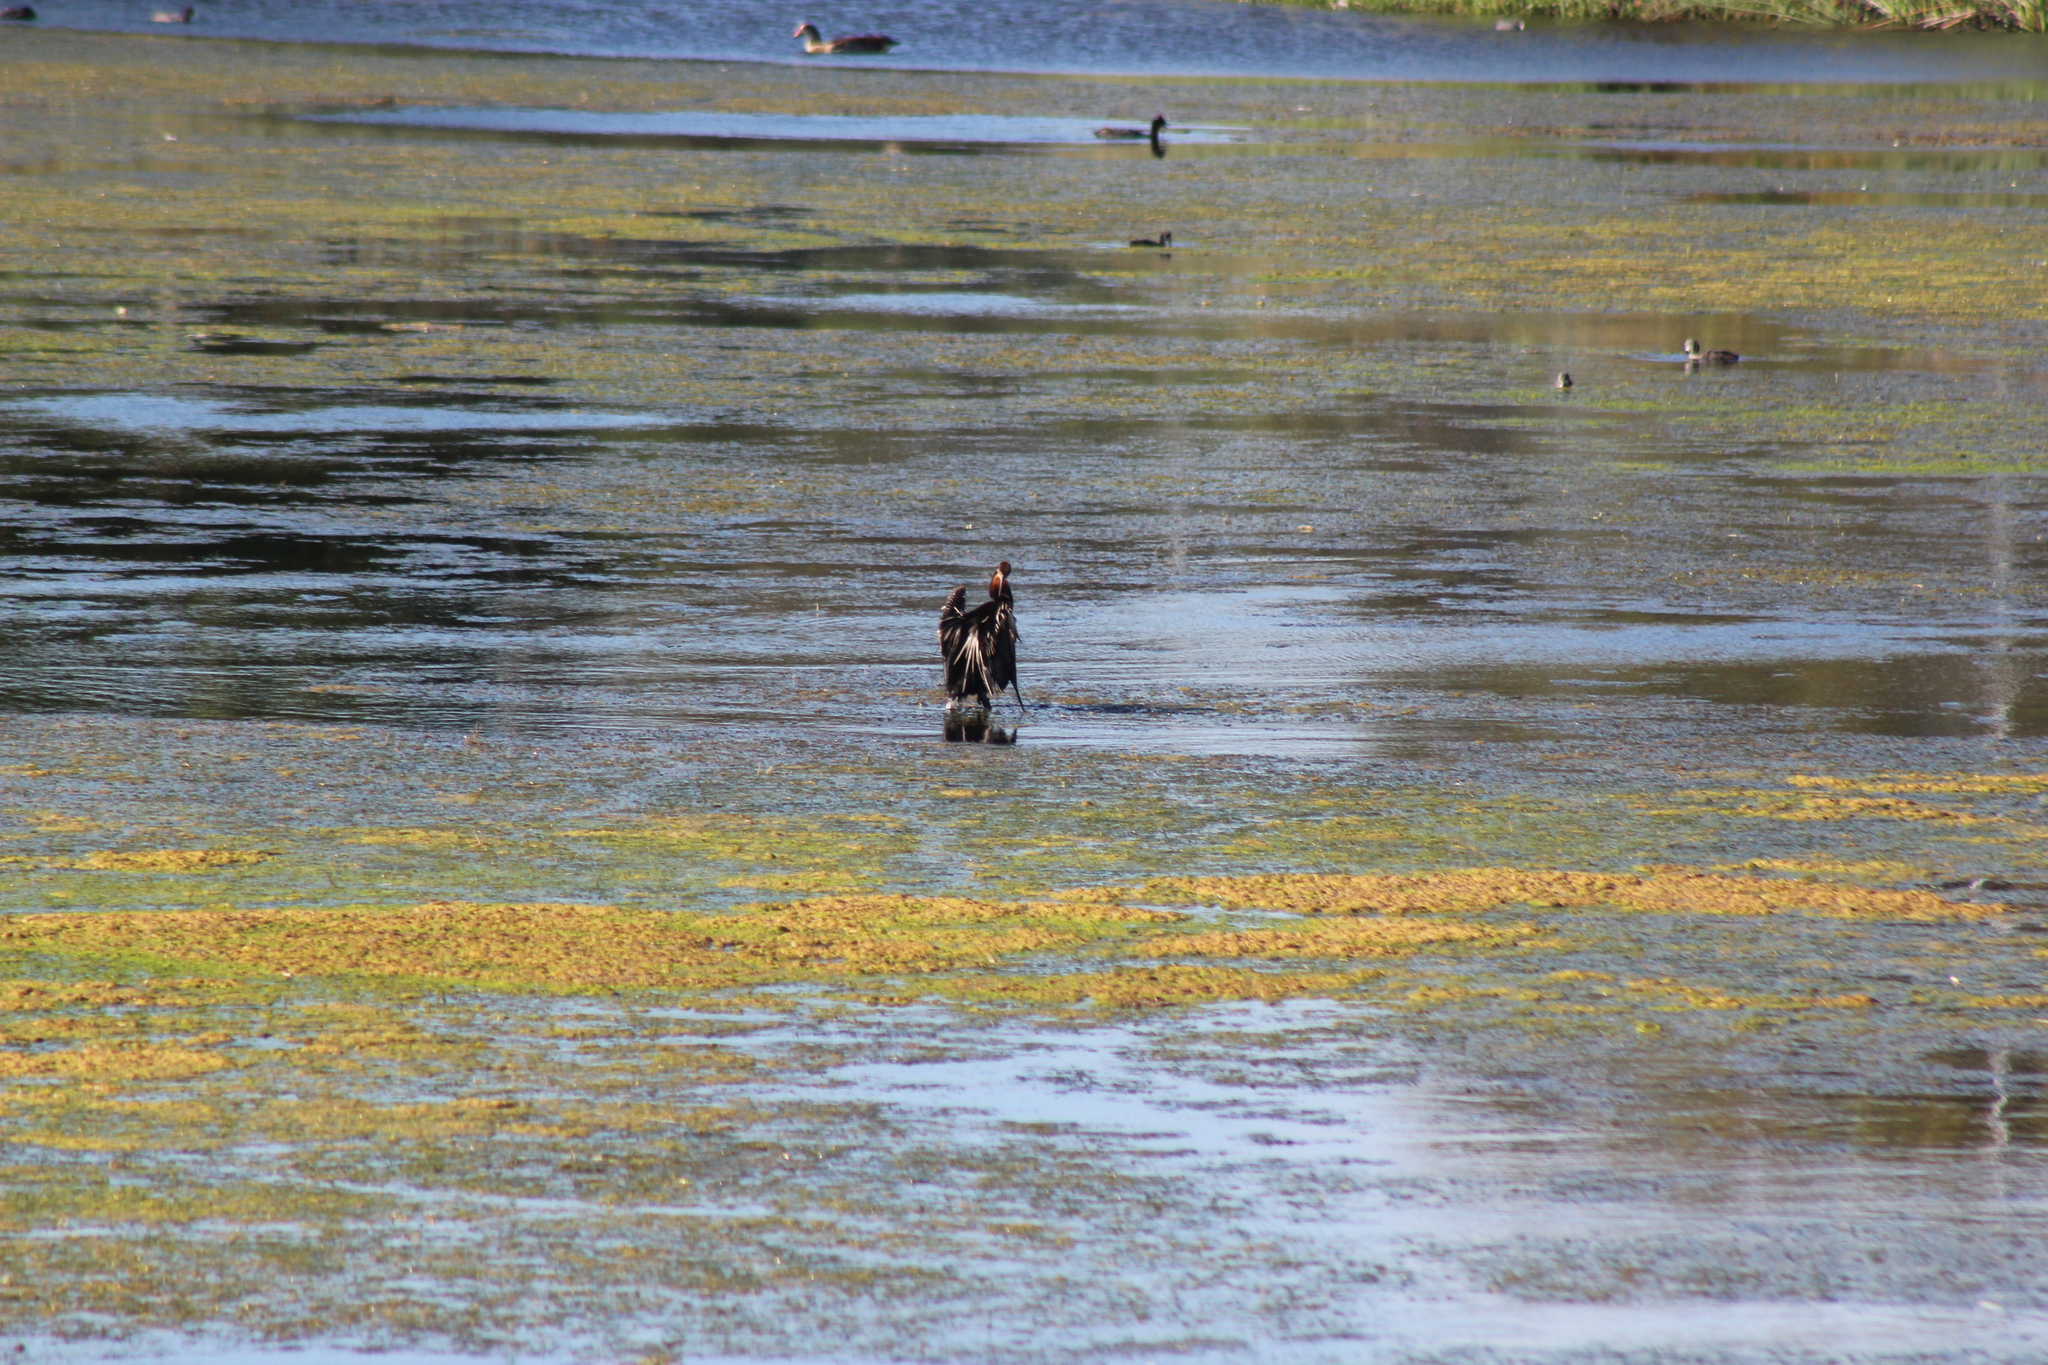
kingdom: Animalia
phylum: Chordata
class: Aves
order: Suliformes
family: Anhingidae
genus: Anhinga
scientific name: Anhinga rufa
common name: African darter
